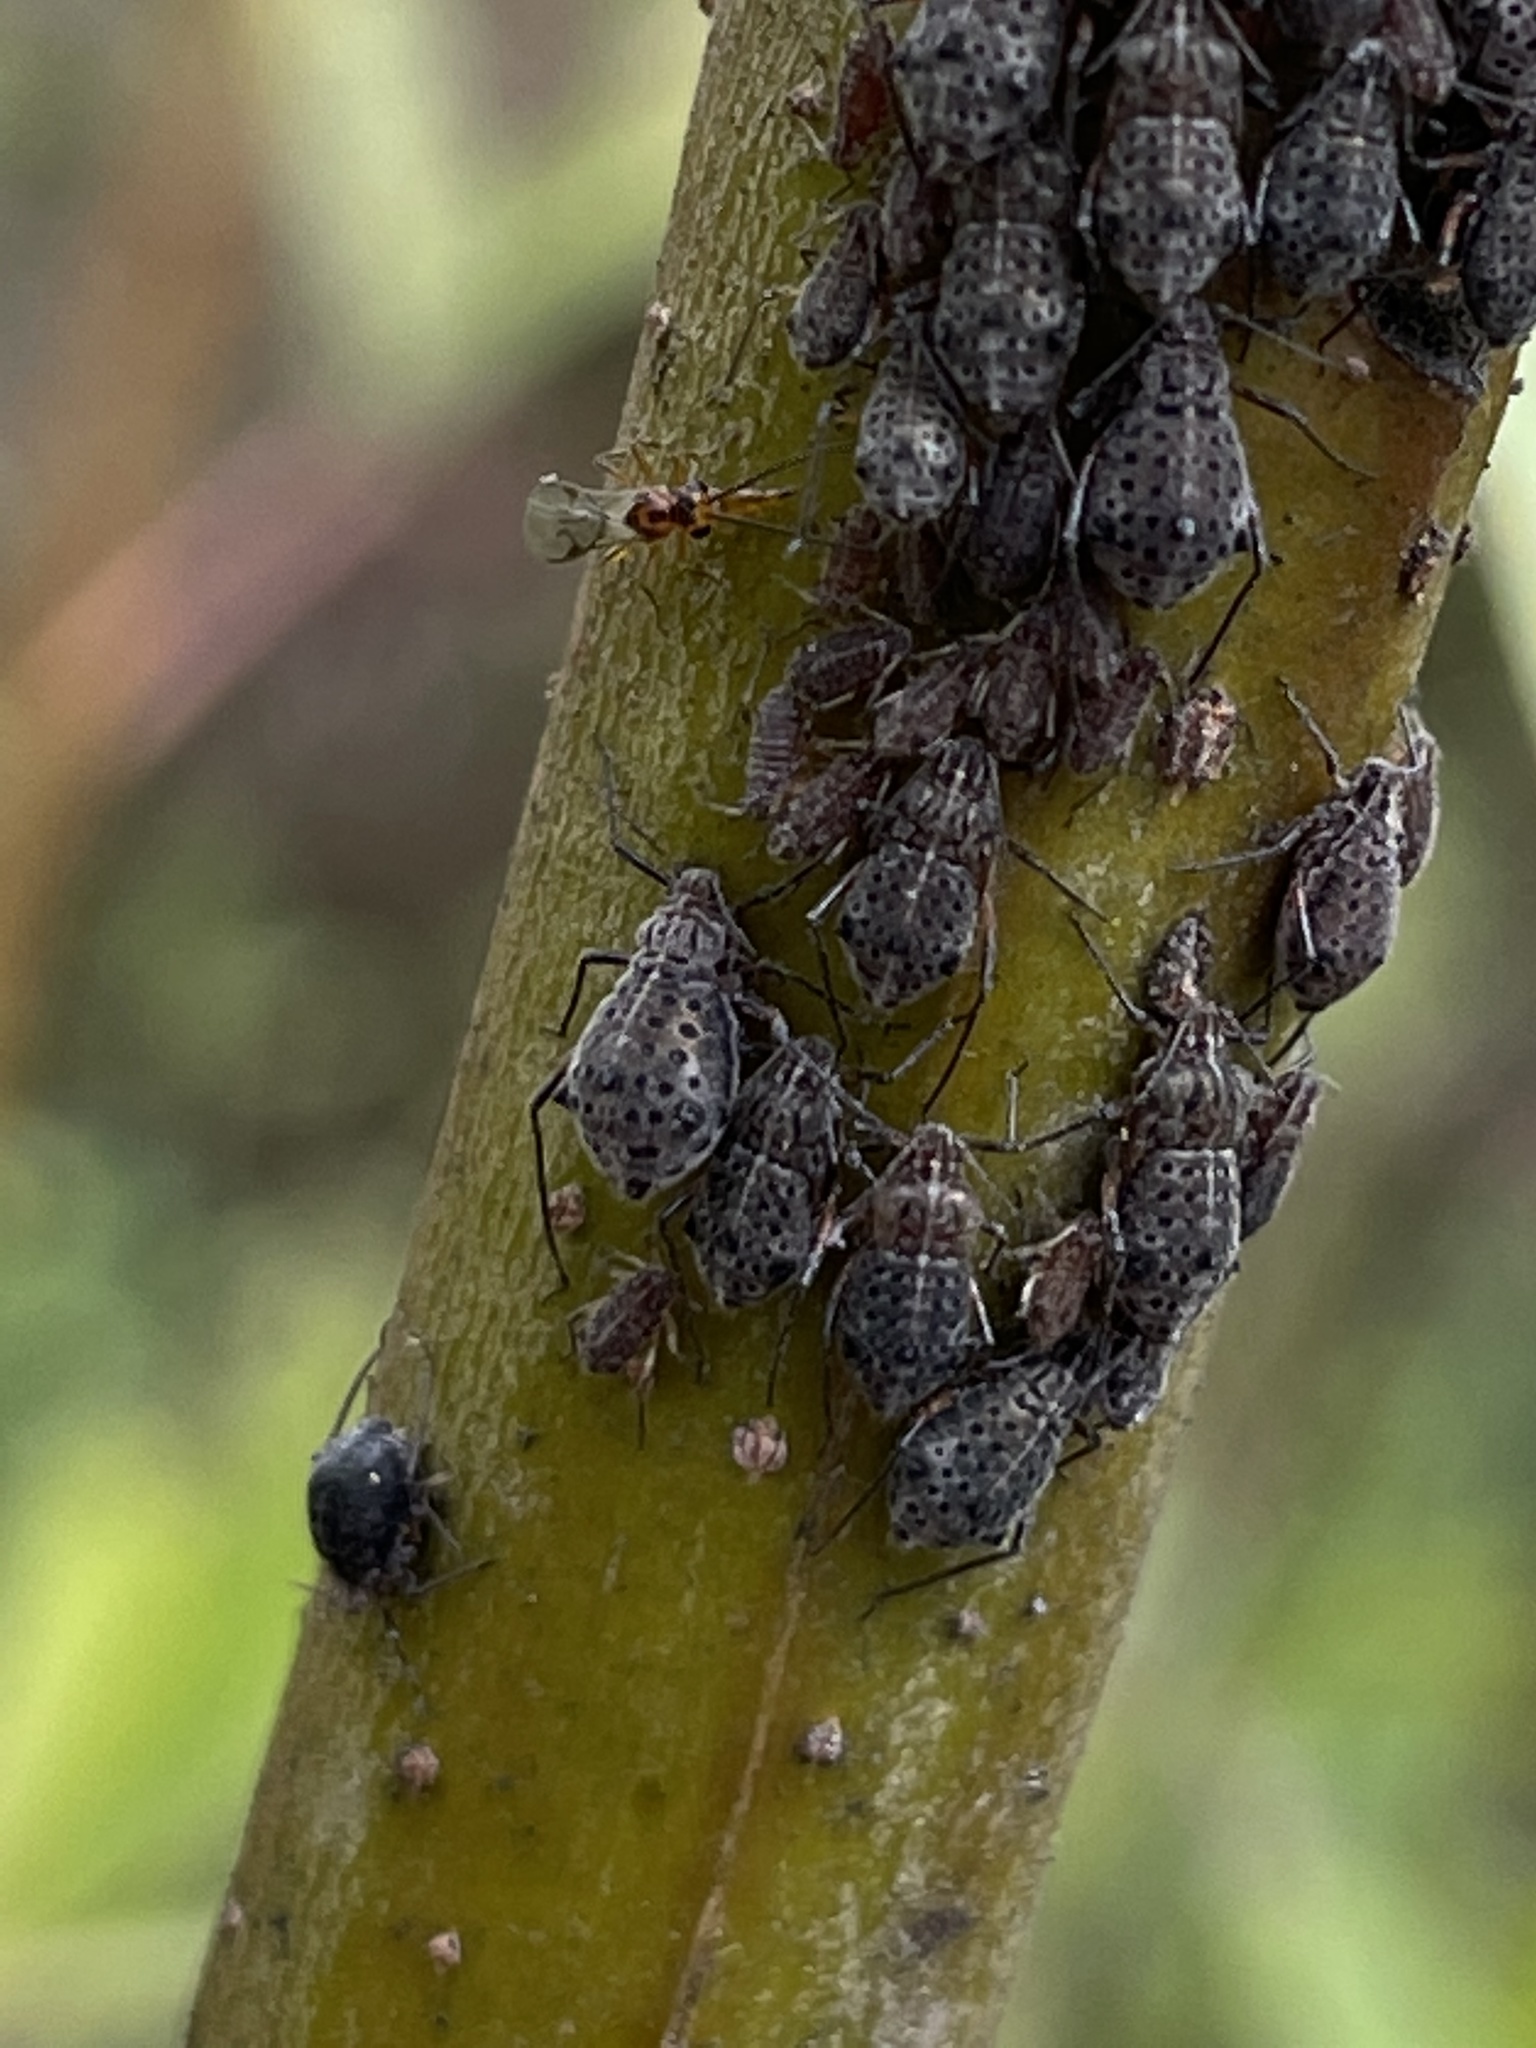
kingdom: Animalia
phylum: Arthropoda
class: Insecta
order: Hymenoptera
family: Braconidae
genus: Pauesia
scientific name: Pauesia nigrovaria
